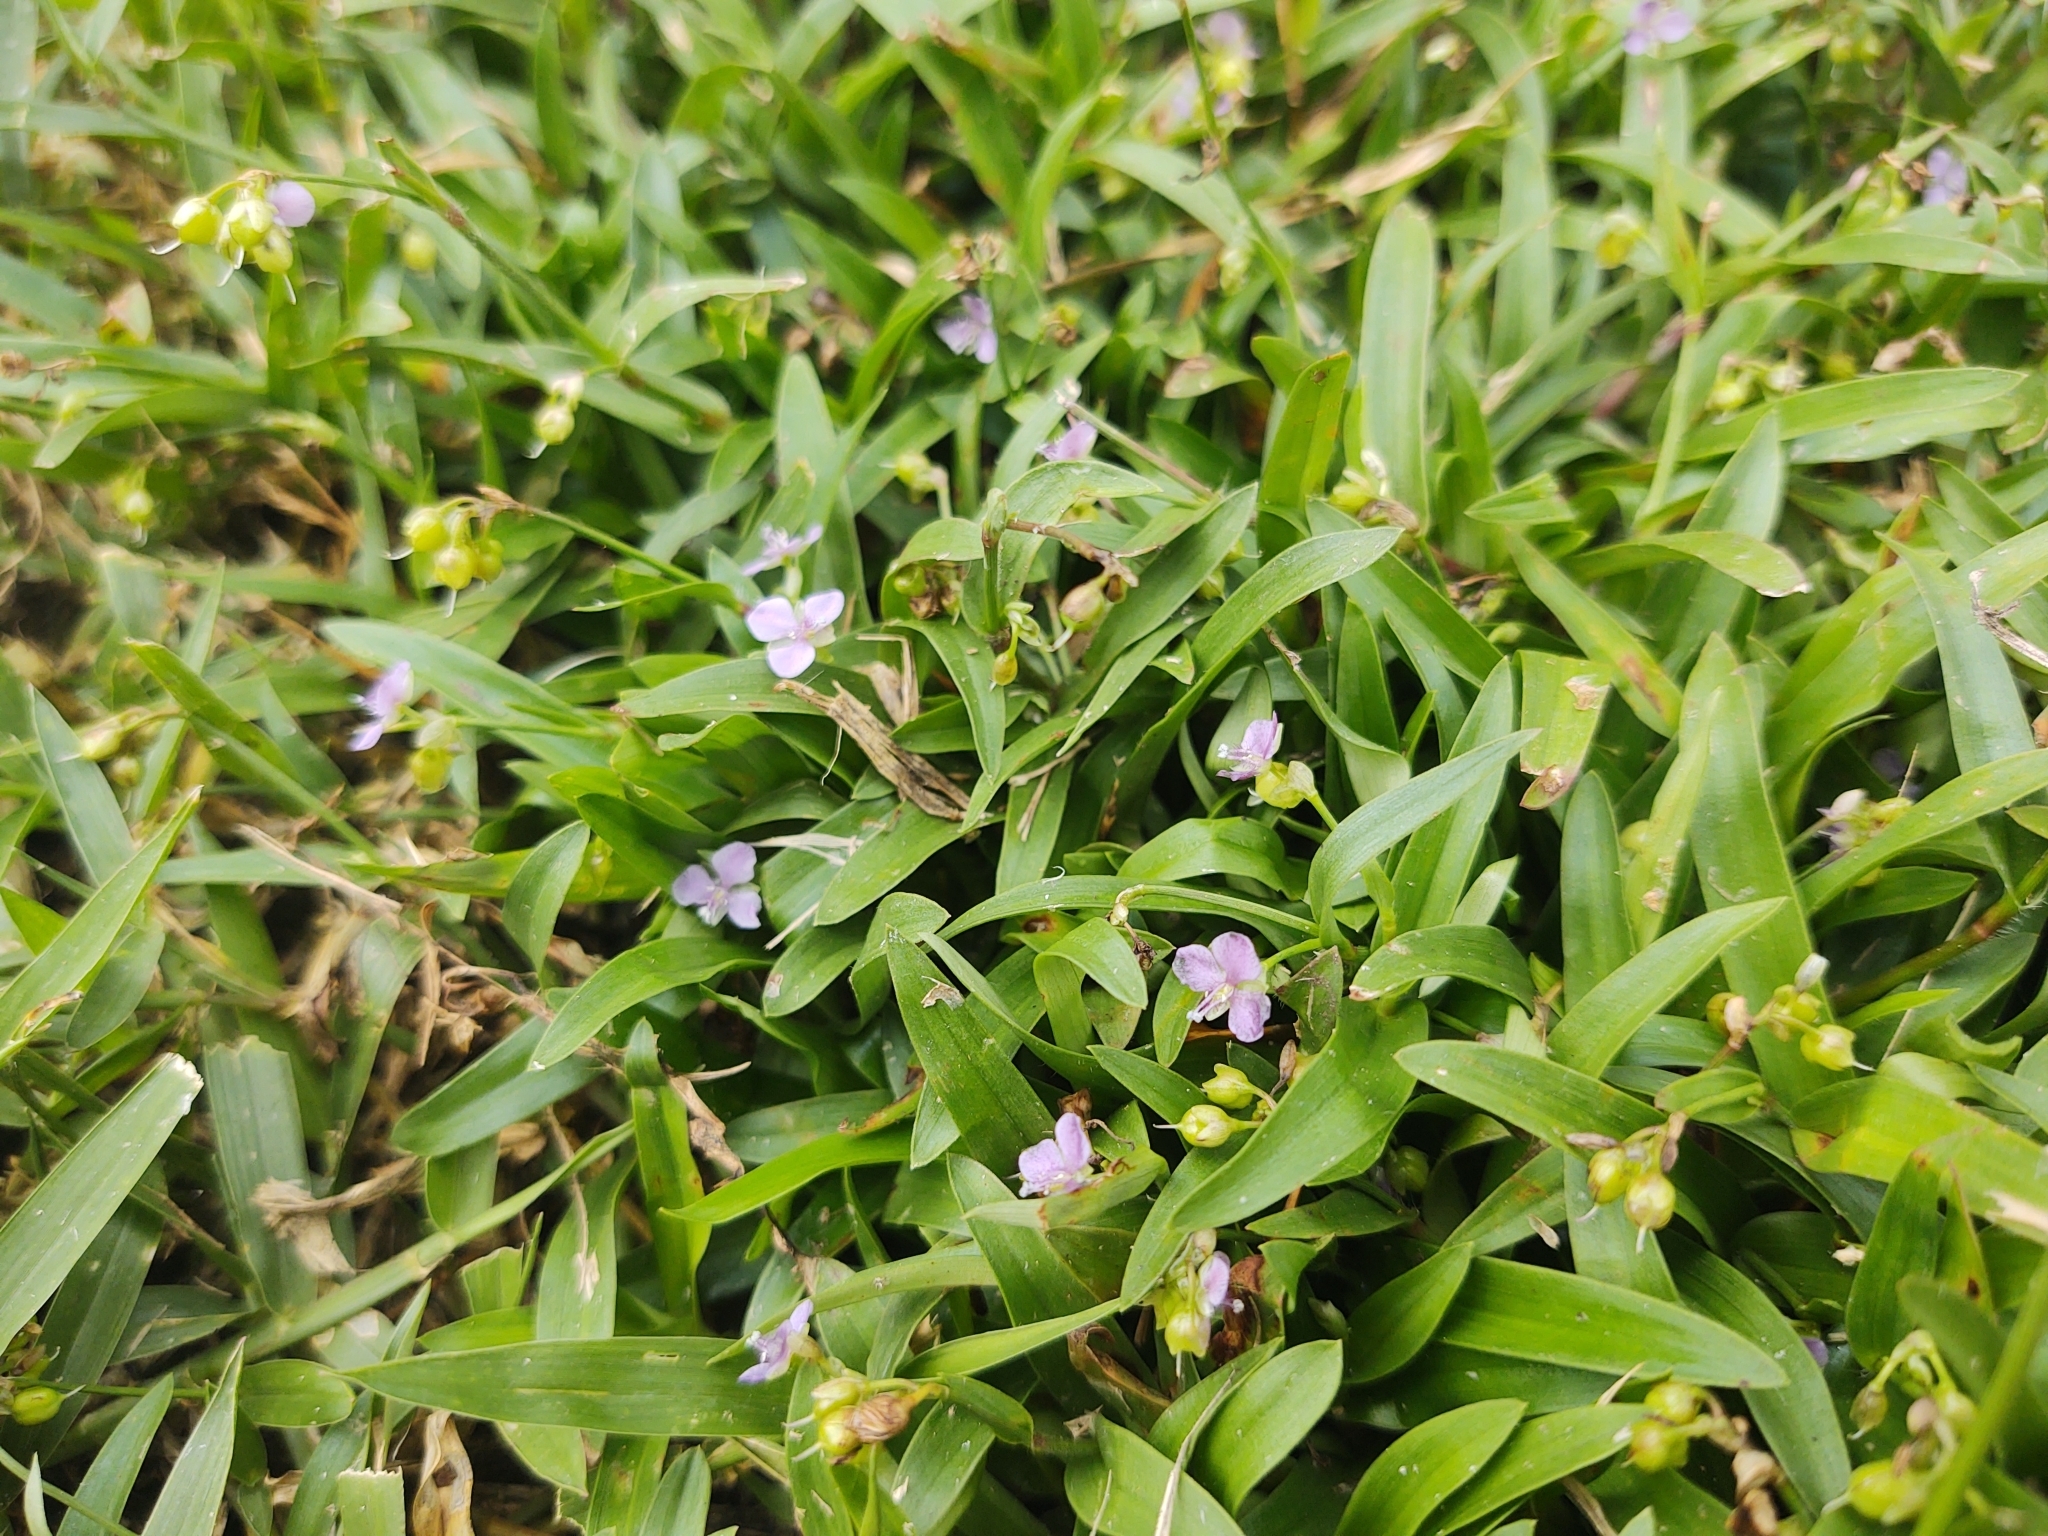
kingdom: Plantae
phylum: Tracheophyta
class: Liliopsida
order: Commelinales
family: Commelinaceae
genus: Murdannia
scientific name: Murdannia nudiflora
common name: Nakedstem dewflower
